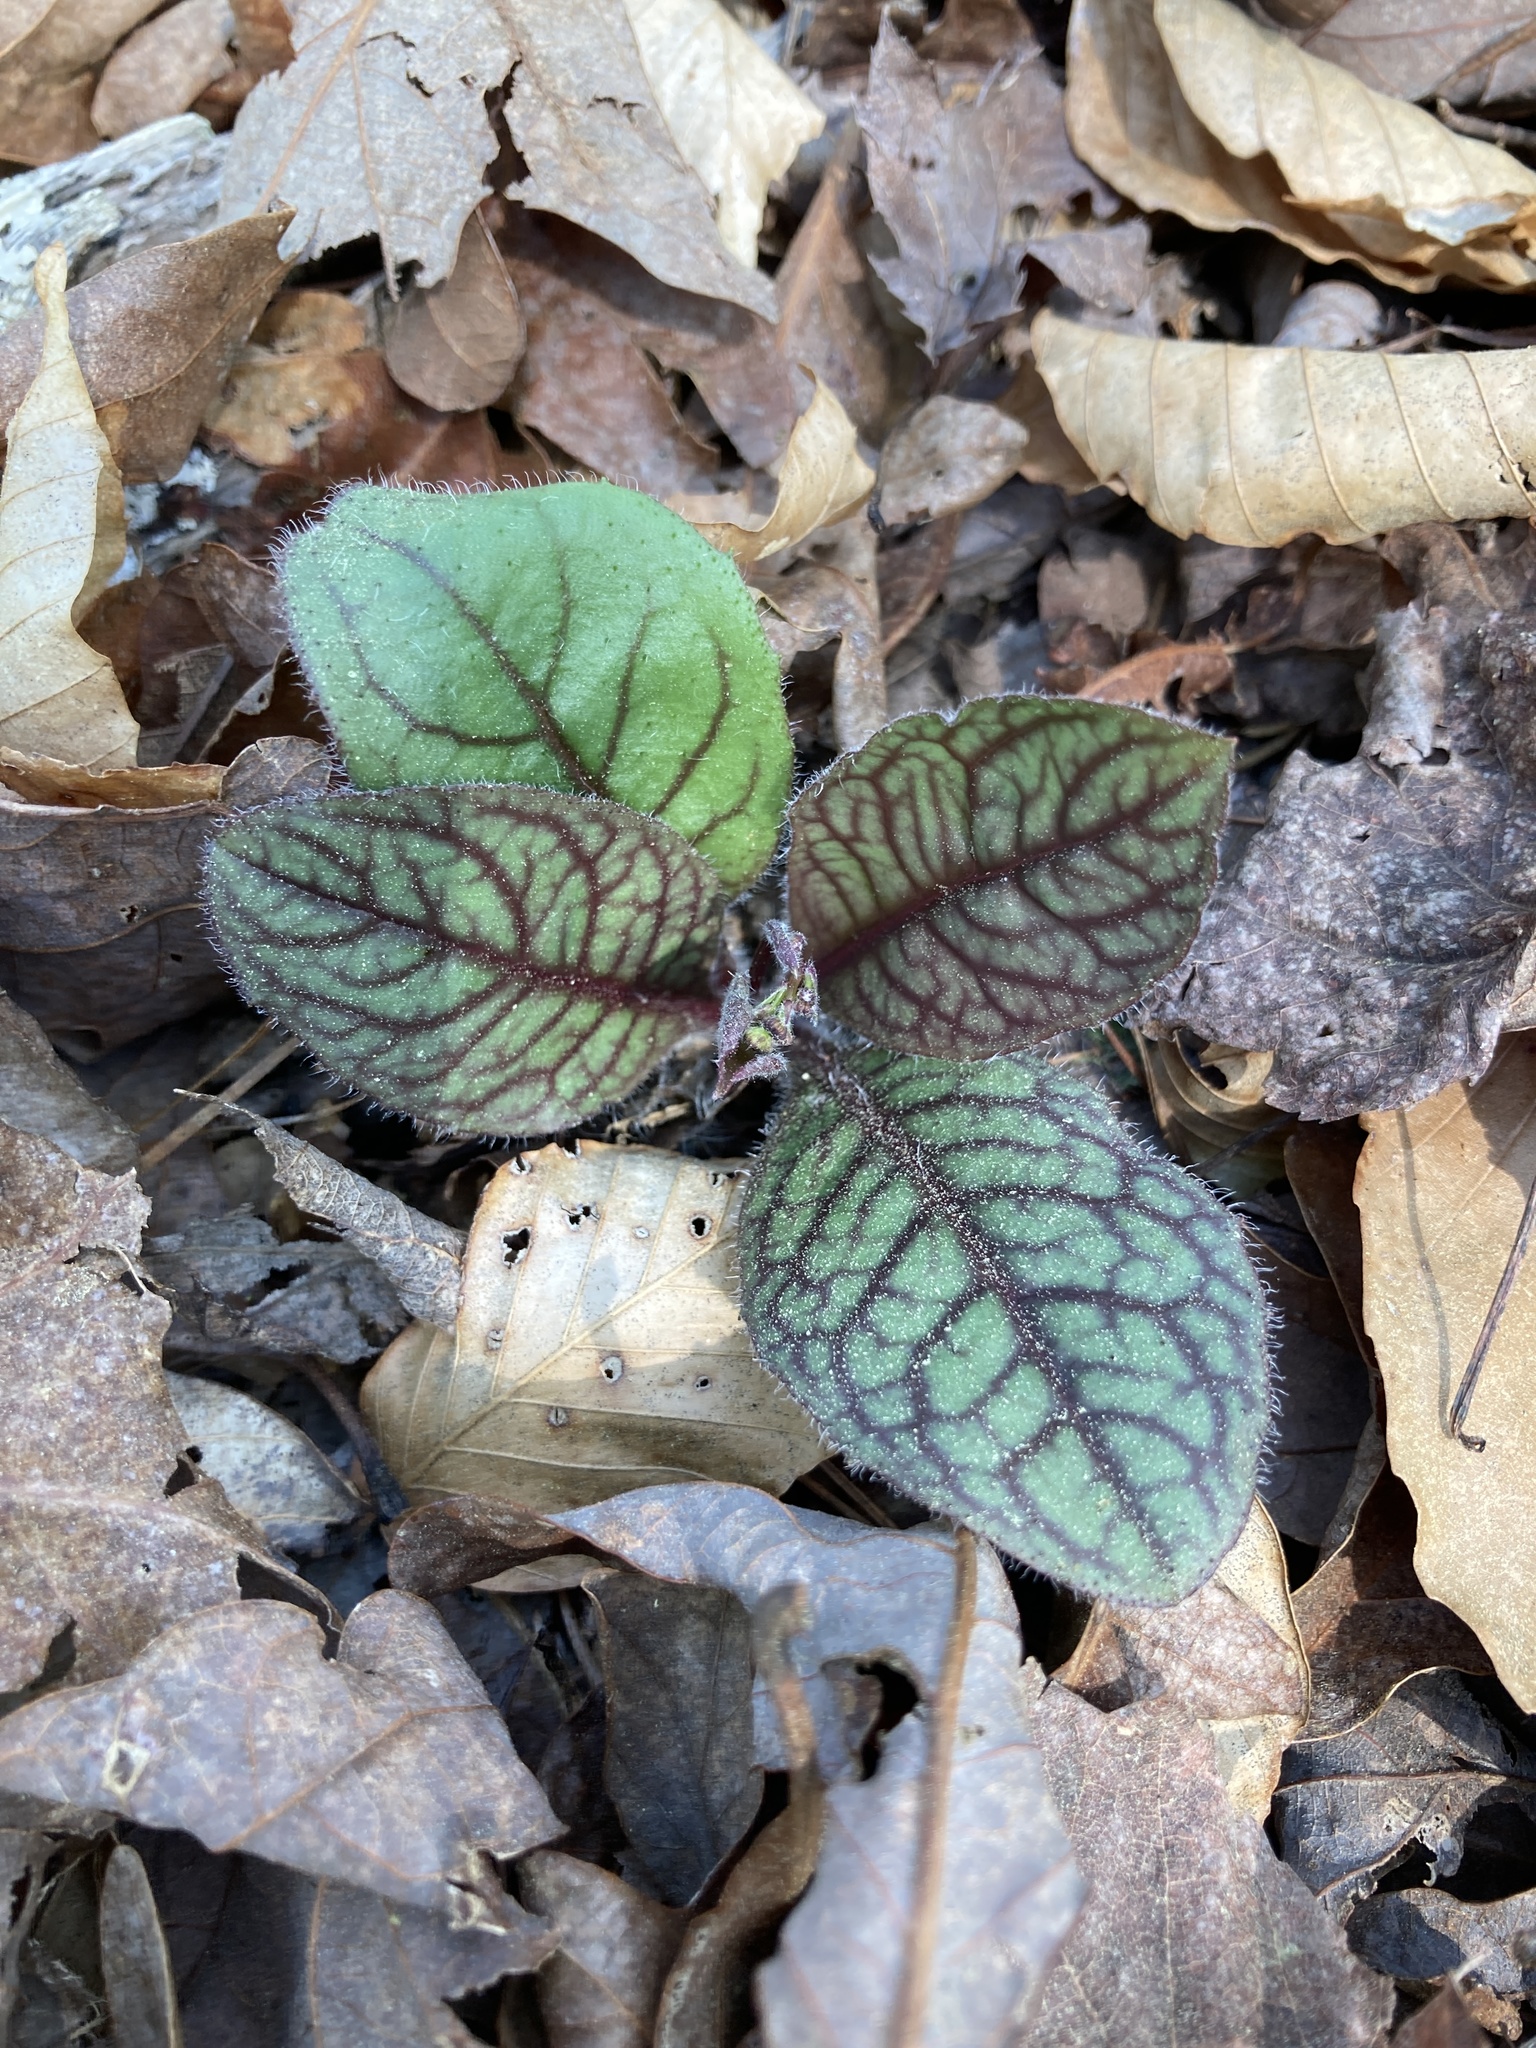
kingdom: Plantae
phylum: Tracheophyta
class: Magnoliopsida
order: Asterales
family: Asteraceae
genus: Hieracium
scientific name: Hieracium venosum
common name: Rattlesnake hawkweed
